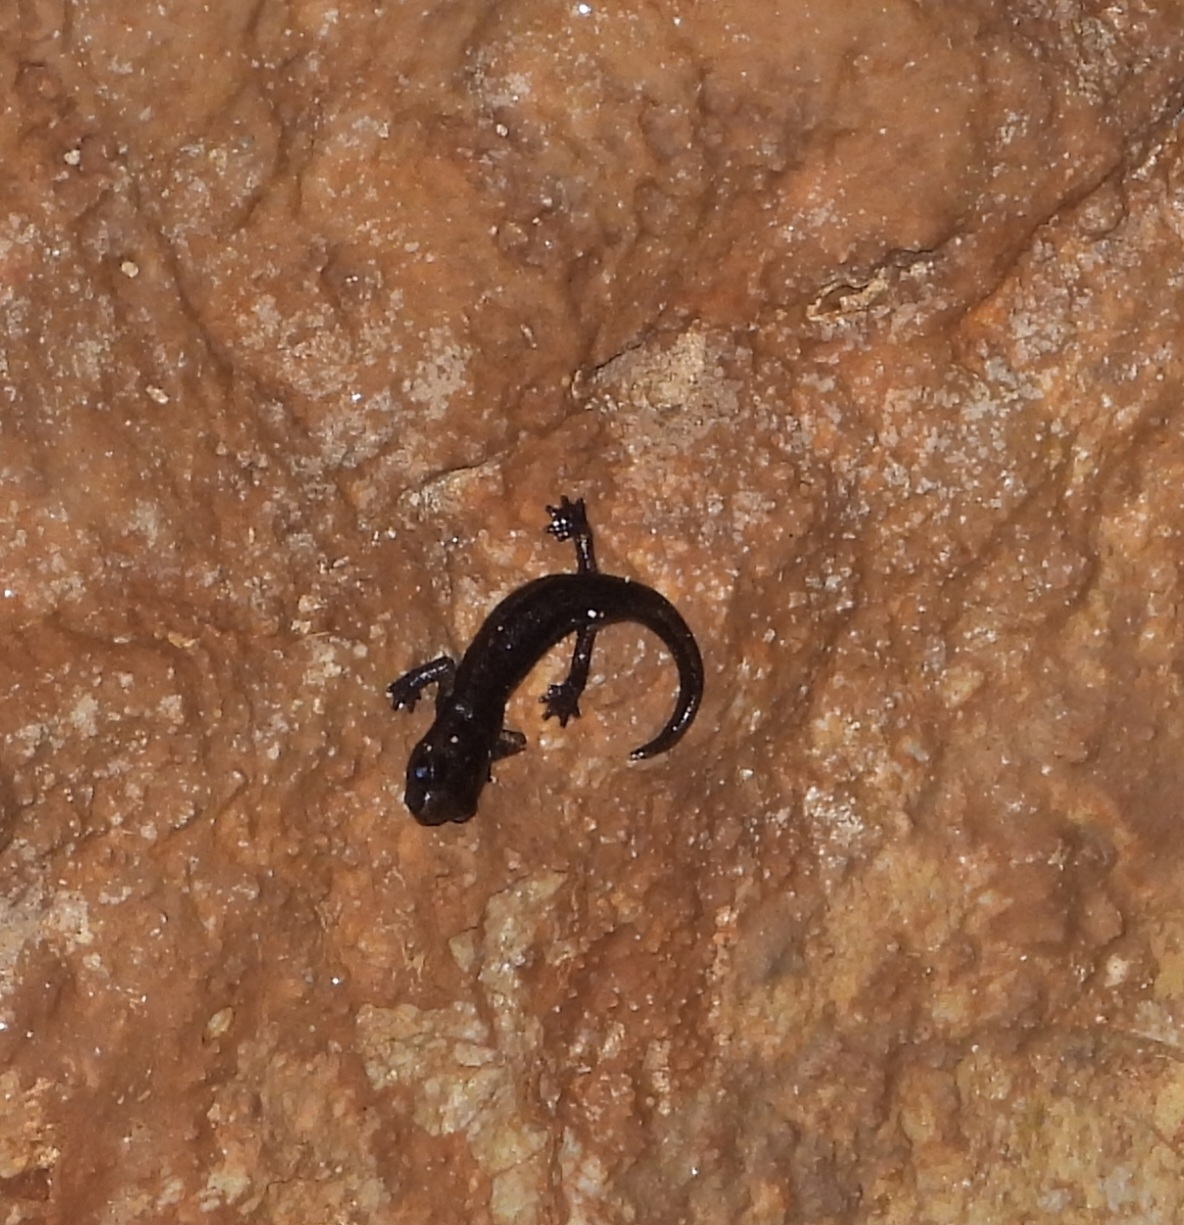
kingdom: Animalia
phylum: Chordata
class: Amphibia
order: Caudata
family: Plethodontidae
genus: Speleomantes
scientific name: Speleomantes ambrosii
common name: Ambrosi's cave salamander
